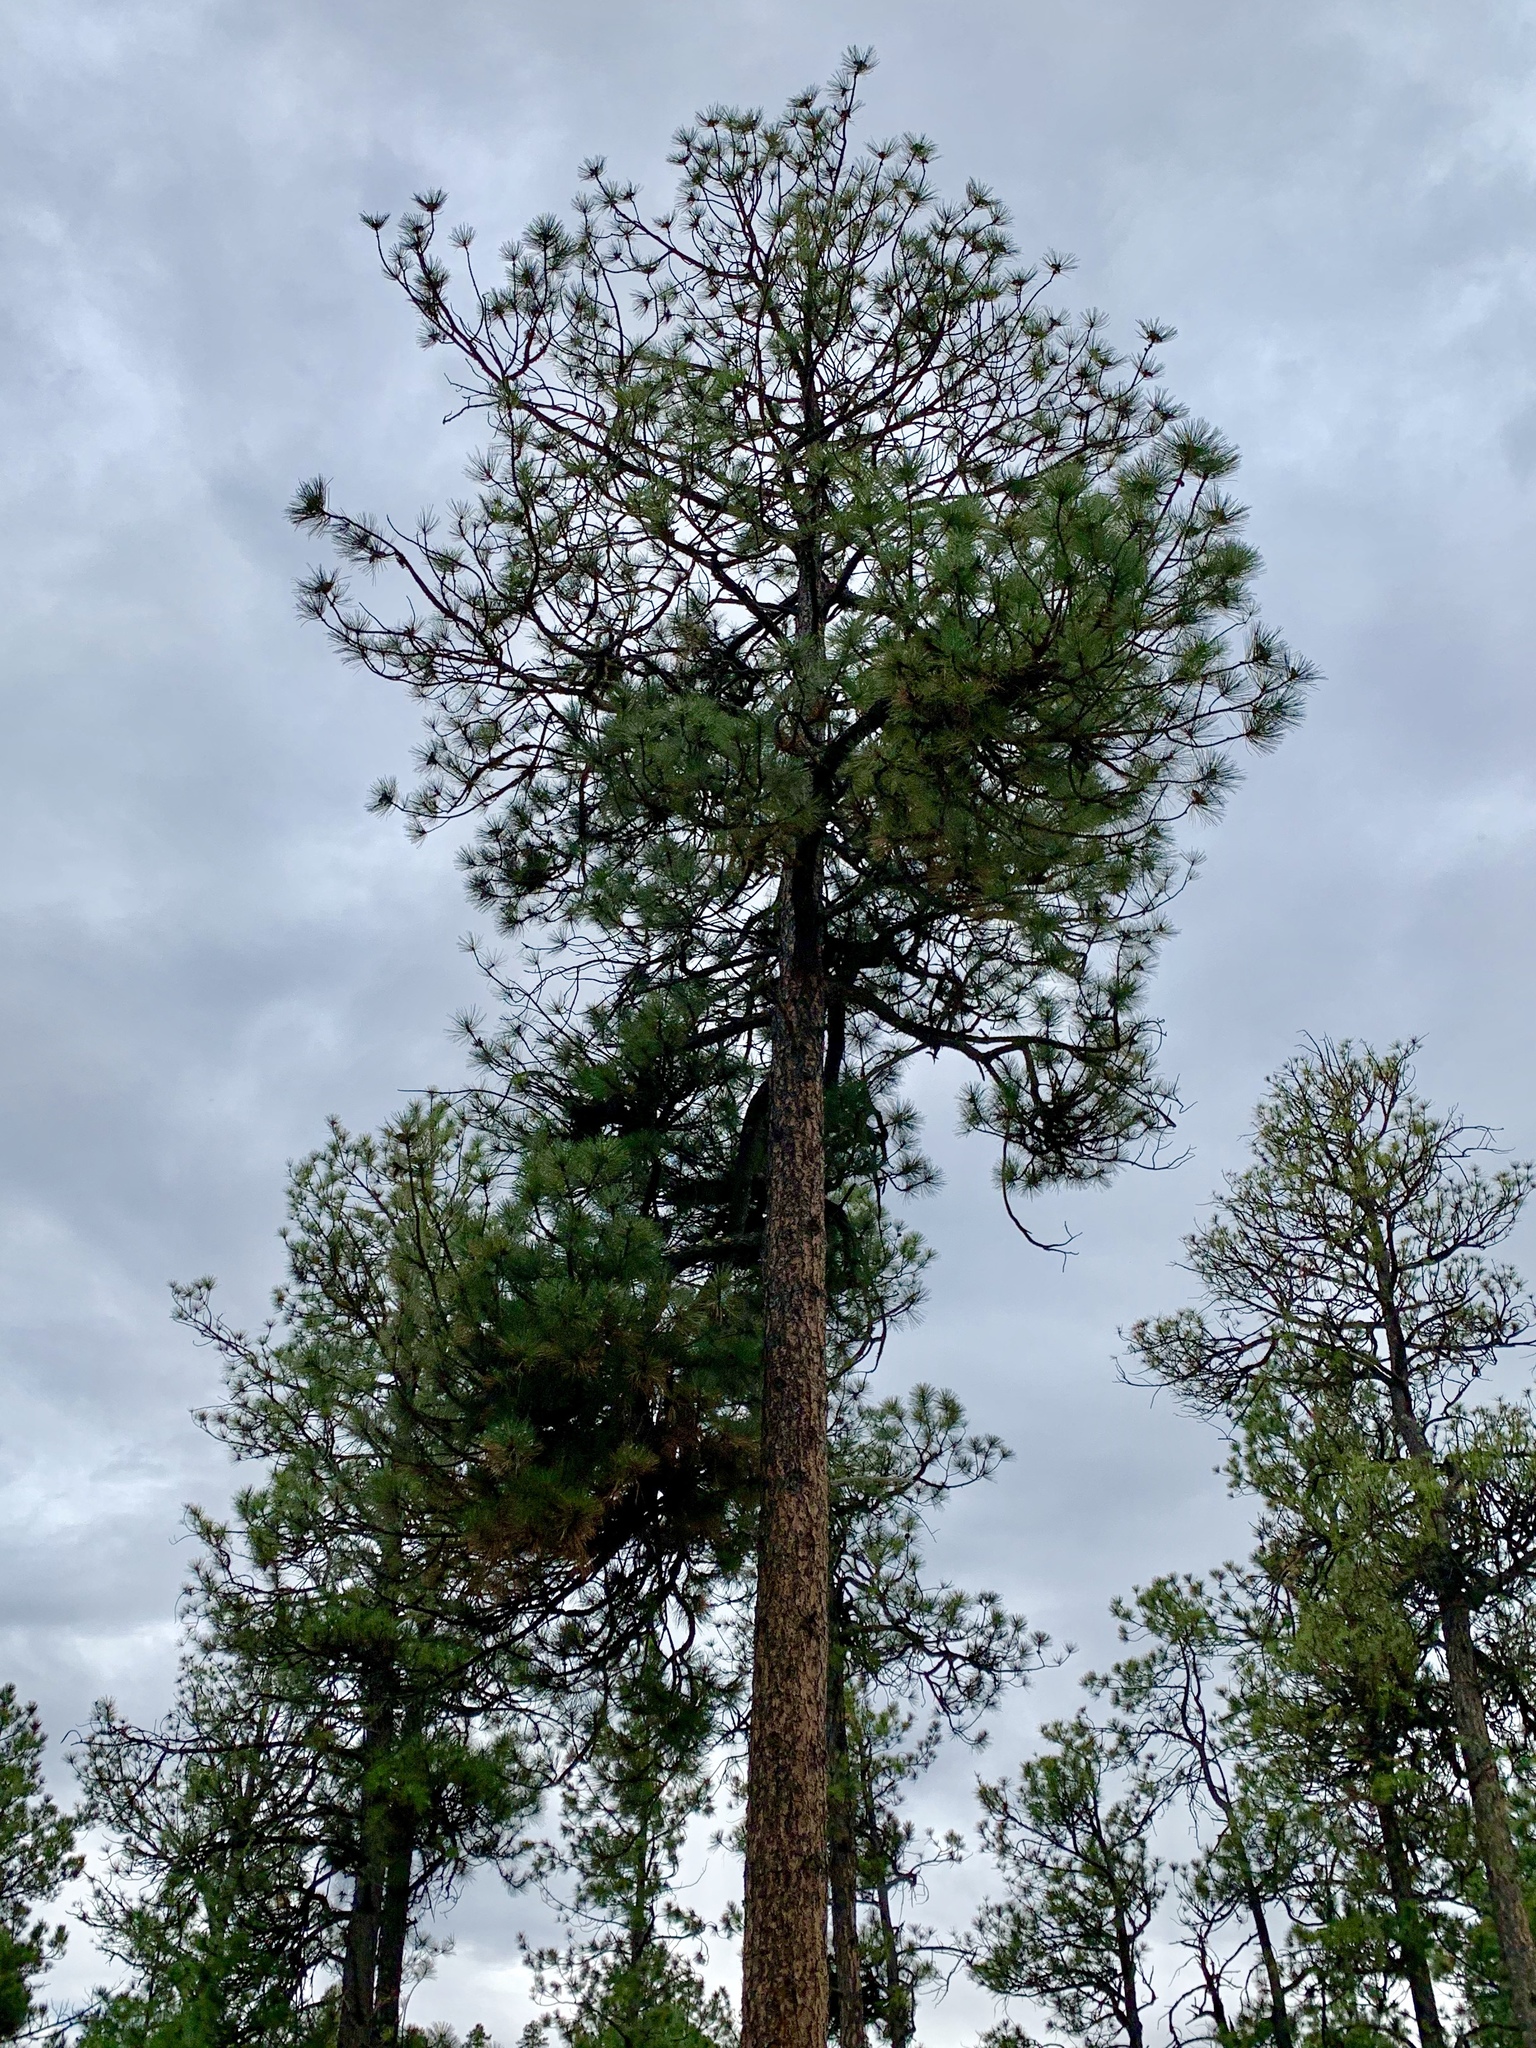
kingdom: Plantae
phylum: Tracheophyta
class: Pinopsida
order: Pinales
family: Pinaceae
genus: Pinus
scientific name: Pinus ponderosa
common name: Western yellow-pine
